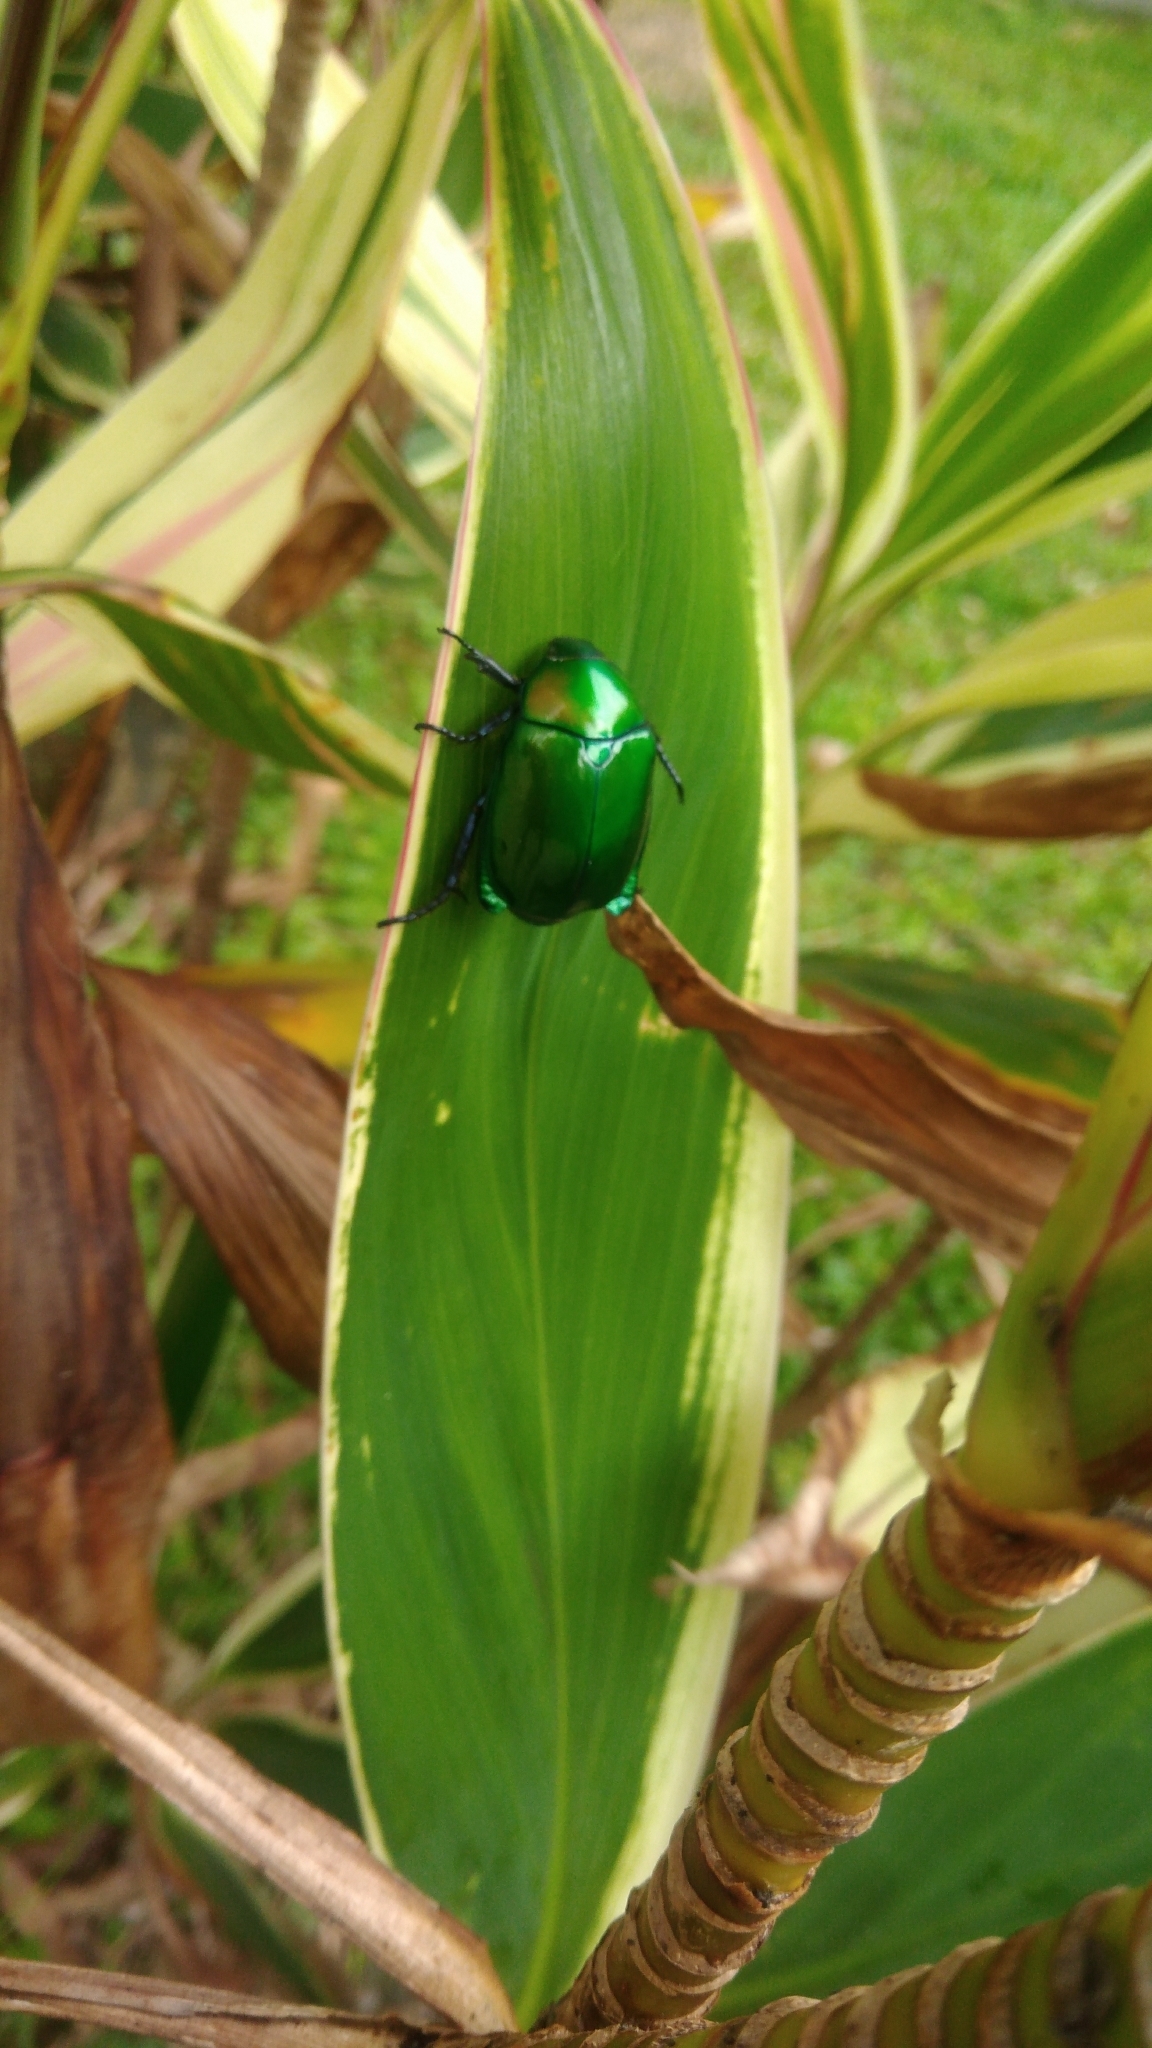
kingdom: Animalia
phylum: Arthropoda
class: Insecta
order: Coleoptera
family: Scarabaeidae
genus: Anomala
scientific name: Anomala expansa
